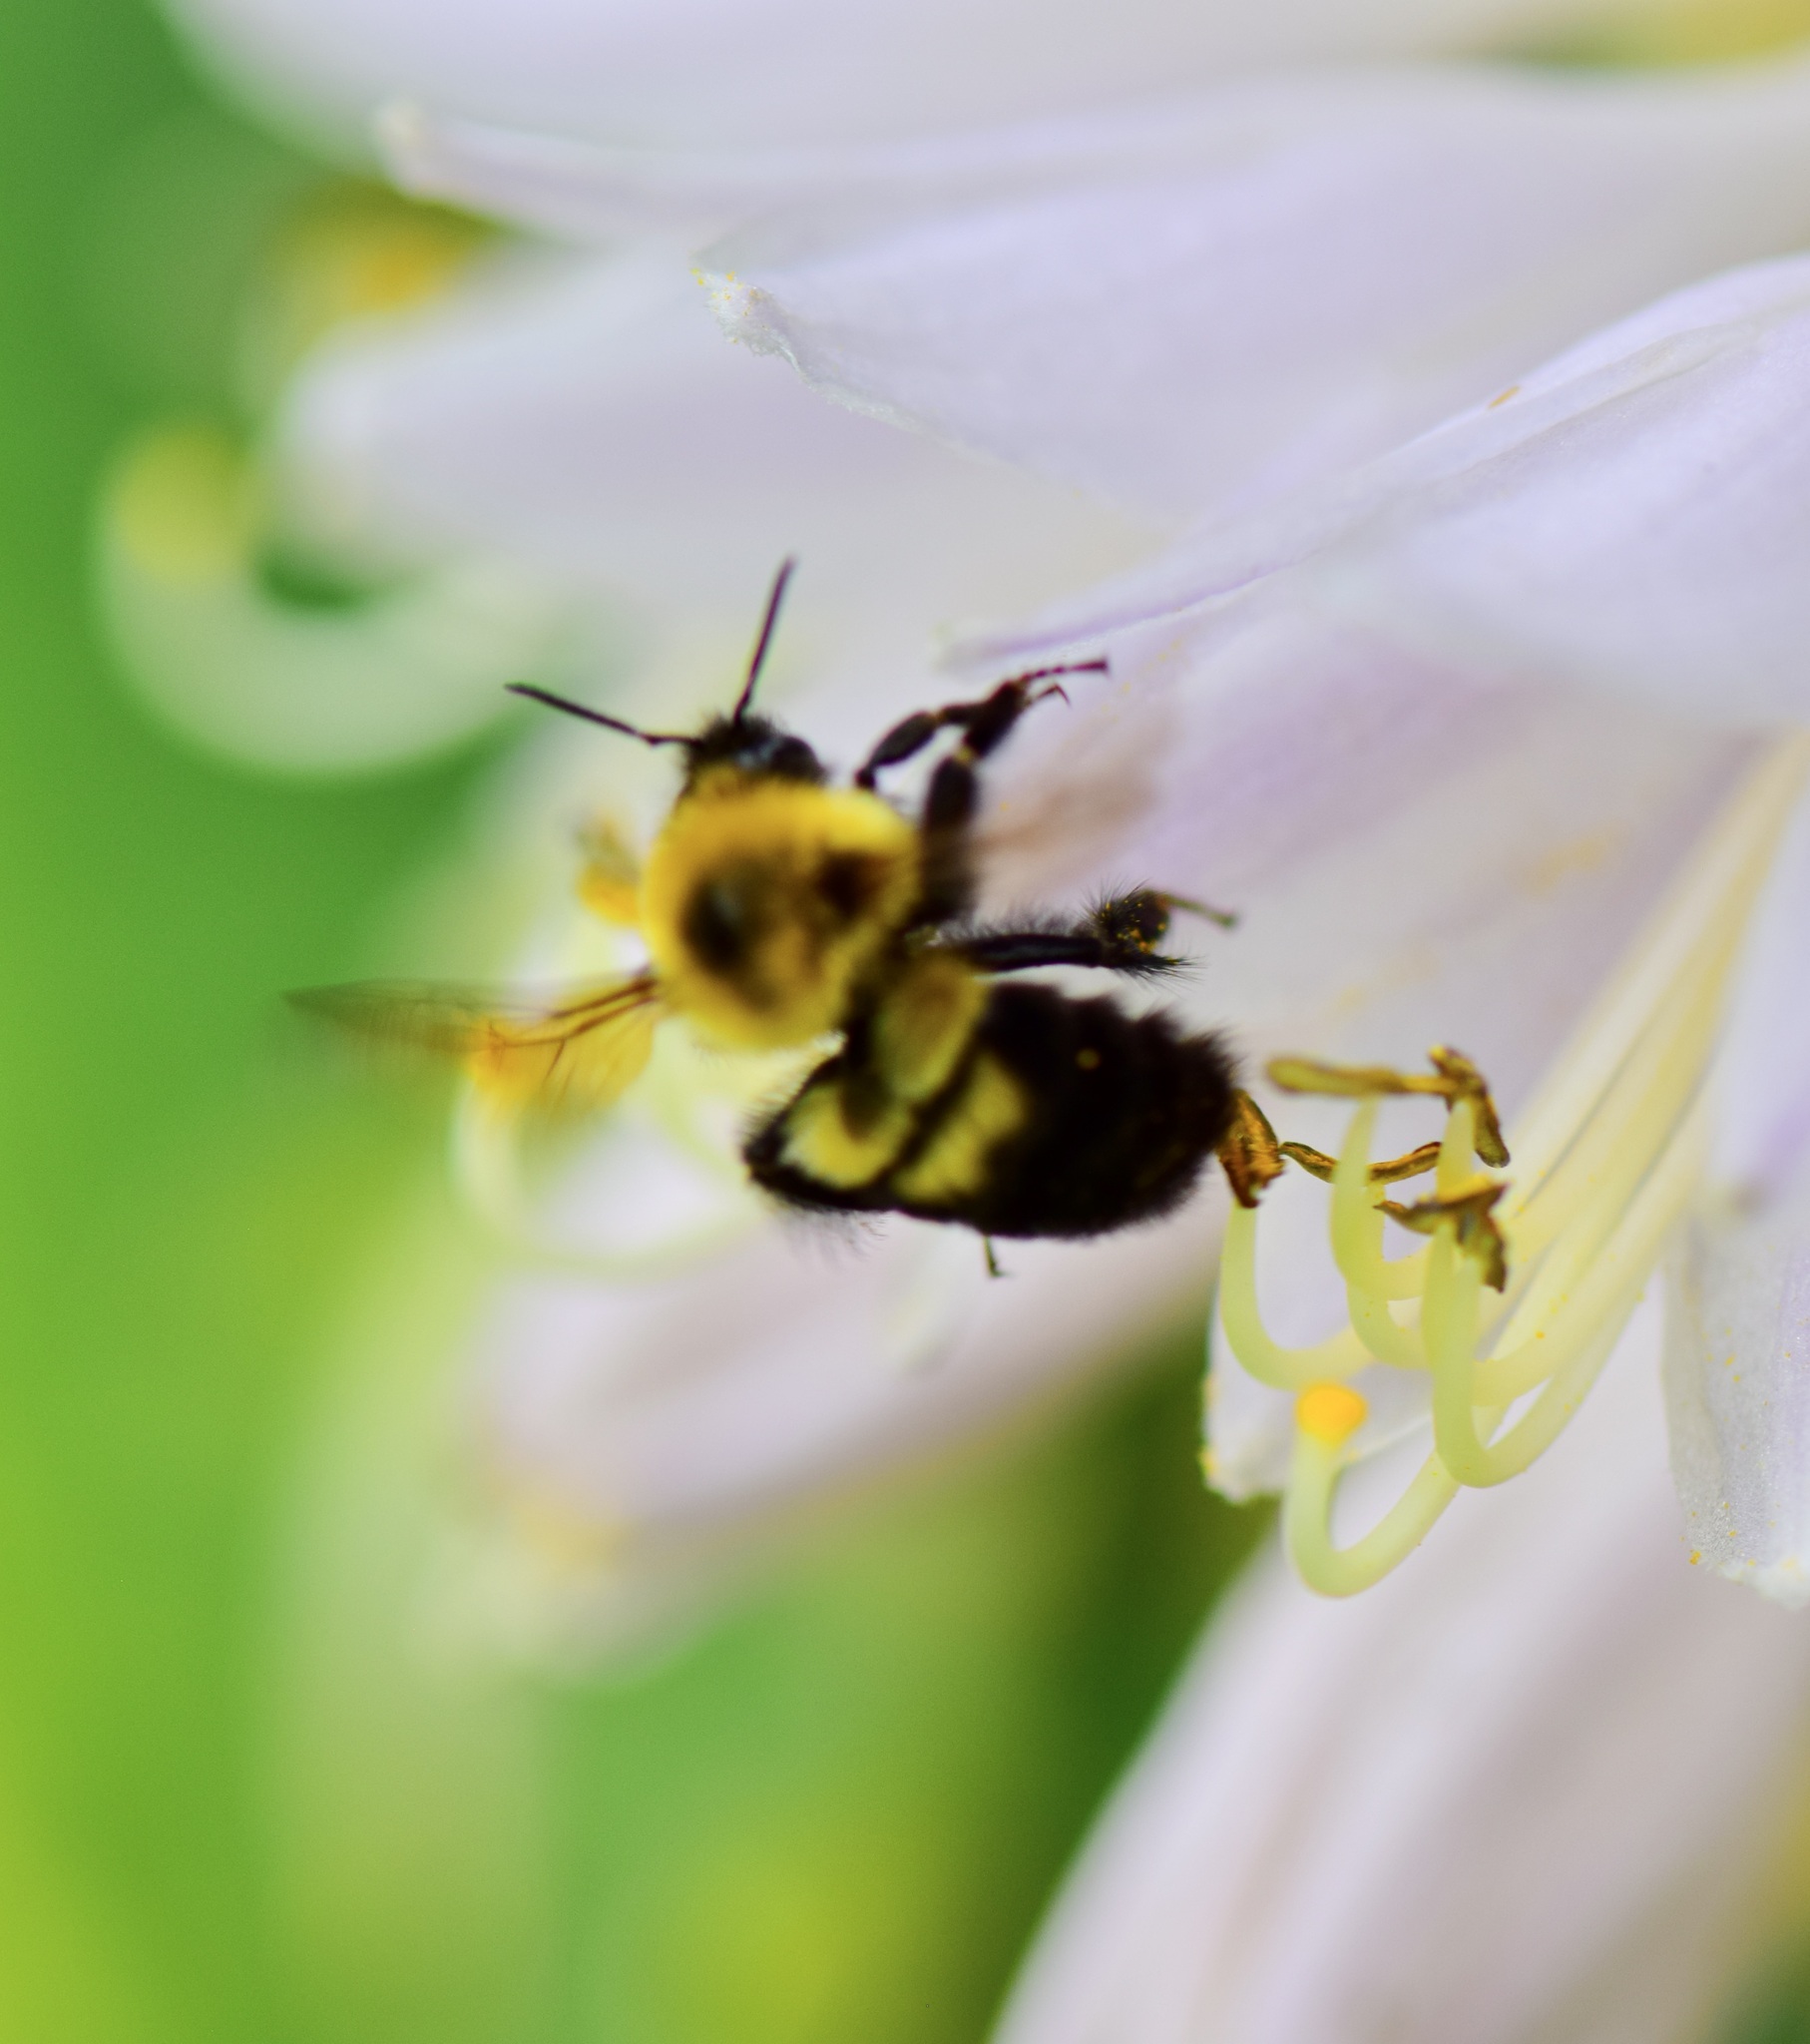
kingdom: Animalia
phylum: Arthropoda
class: Insecta
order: Hymenoptera
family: Apidae
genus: Bombus
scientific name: Bombus bimaculatus
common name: Two-spotted bumble bee
